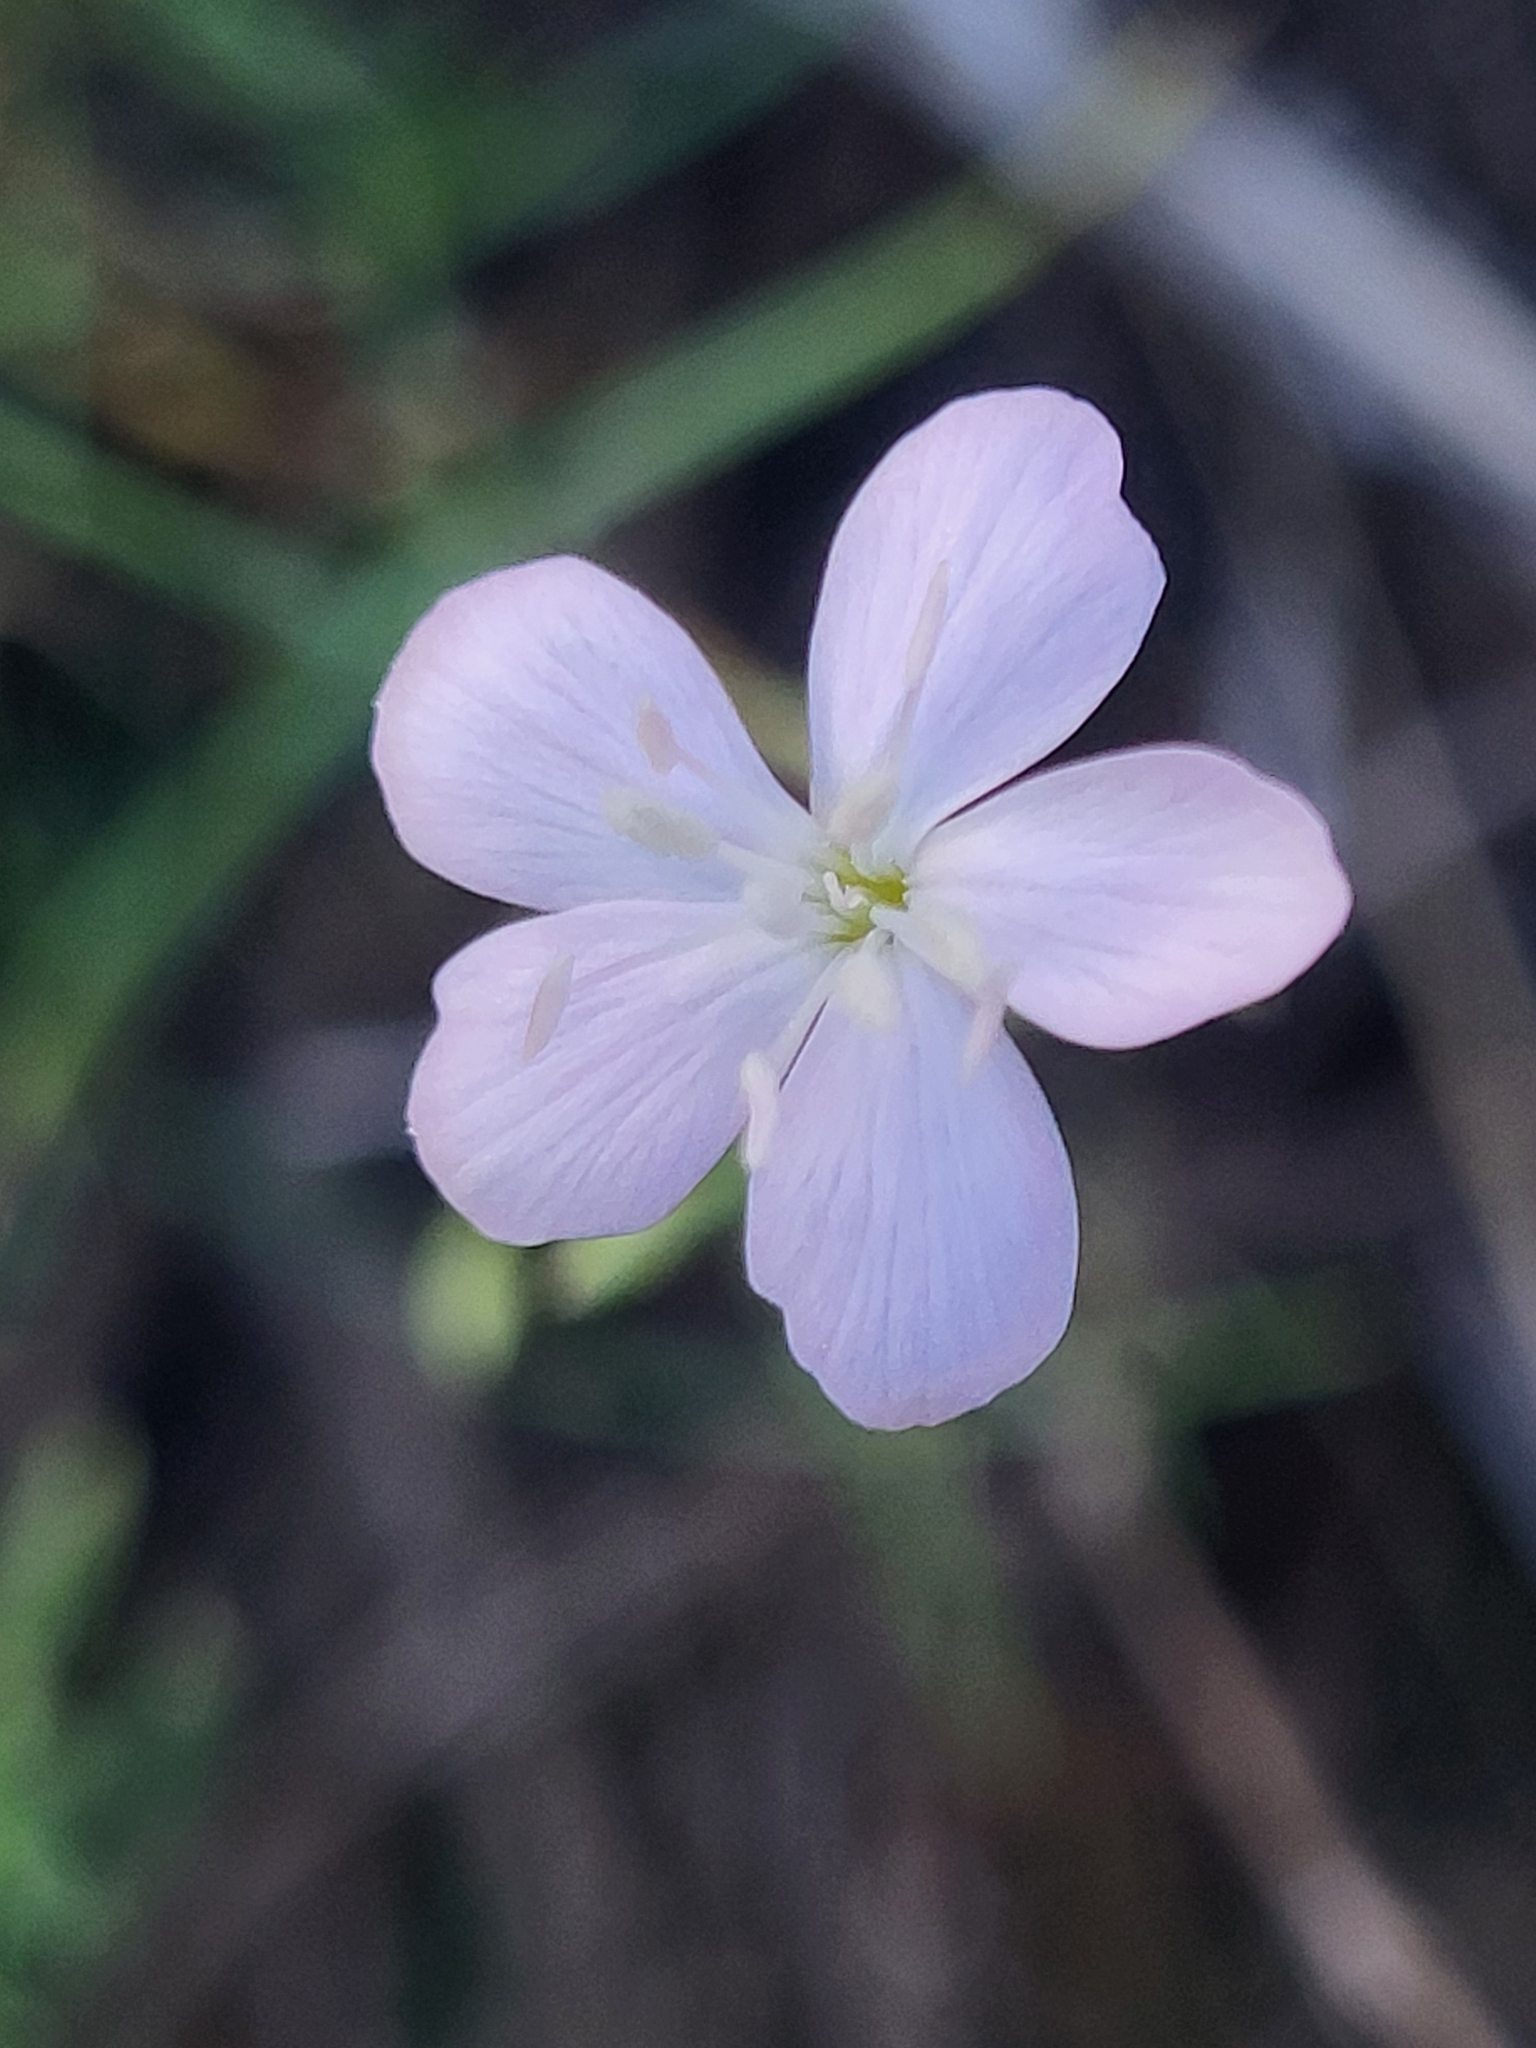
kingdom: Plantae
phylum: Tracheophyta
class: Magnoliopsida
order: Caryophyllales
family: Caryophyllaceae
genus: Dianthus
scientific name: Dianthus sylvestris
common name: Wood pink
